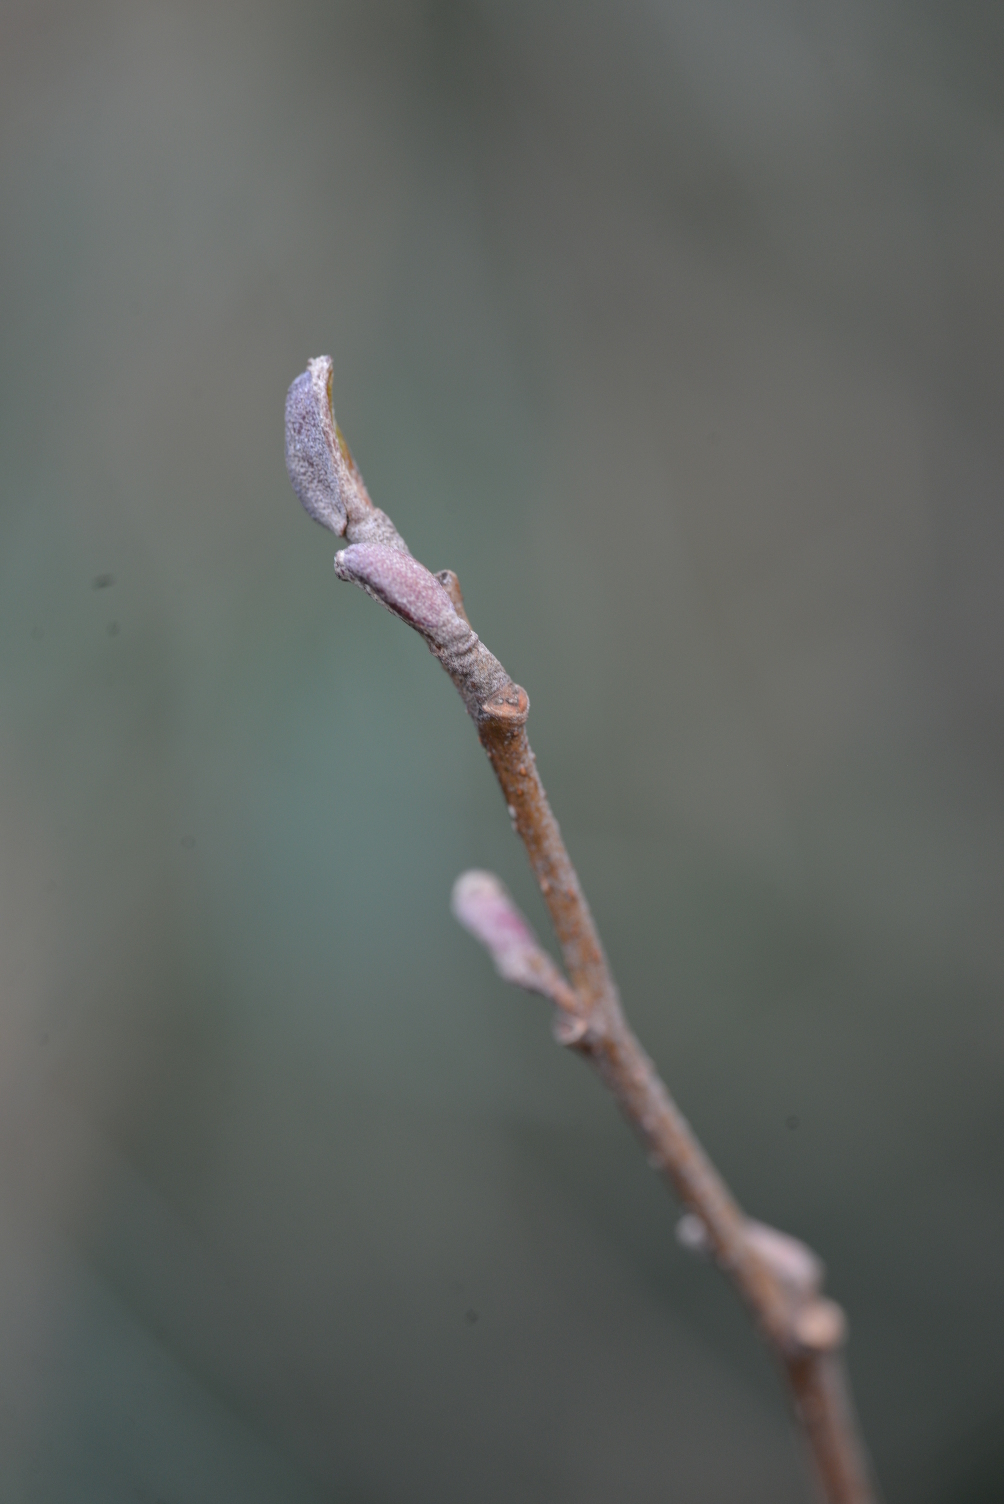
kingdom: Plantae
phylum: Tracheophyta
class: Magnoliopsida
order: Fagales
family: Betulaceae
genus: Alnus
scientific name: Alnus glutinosa
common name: Black alder
